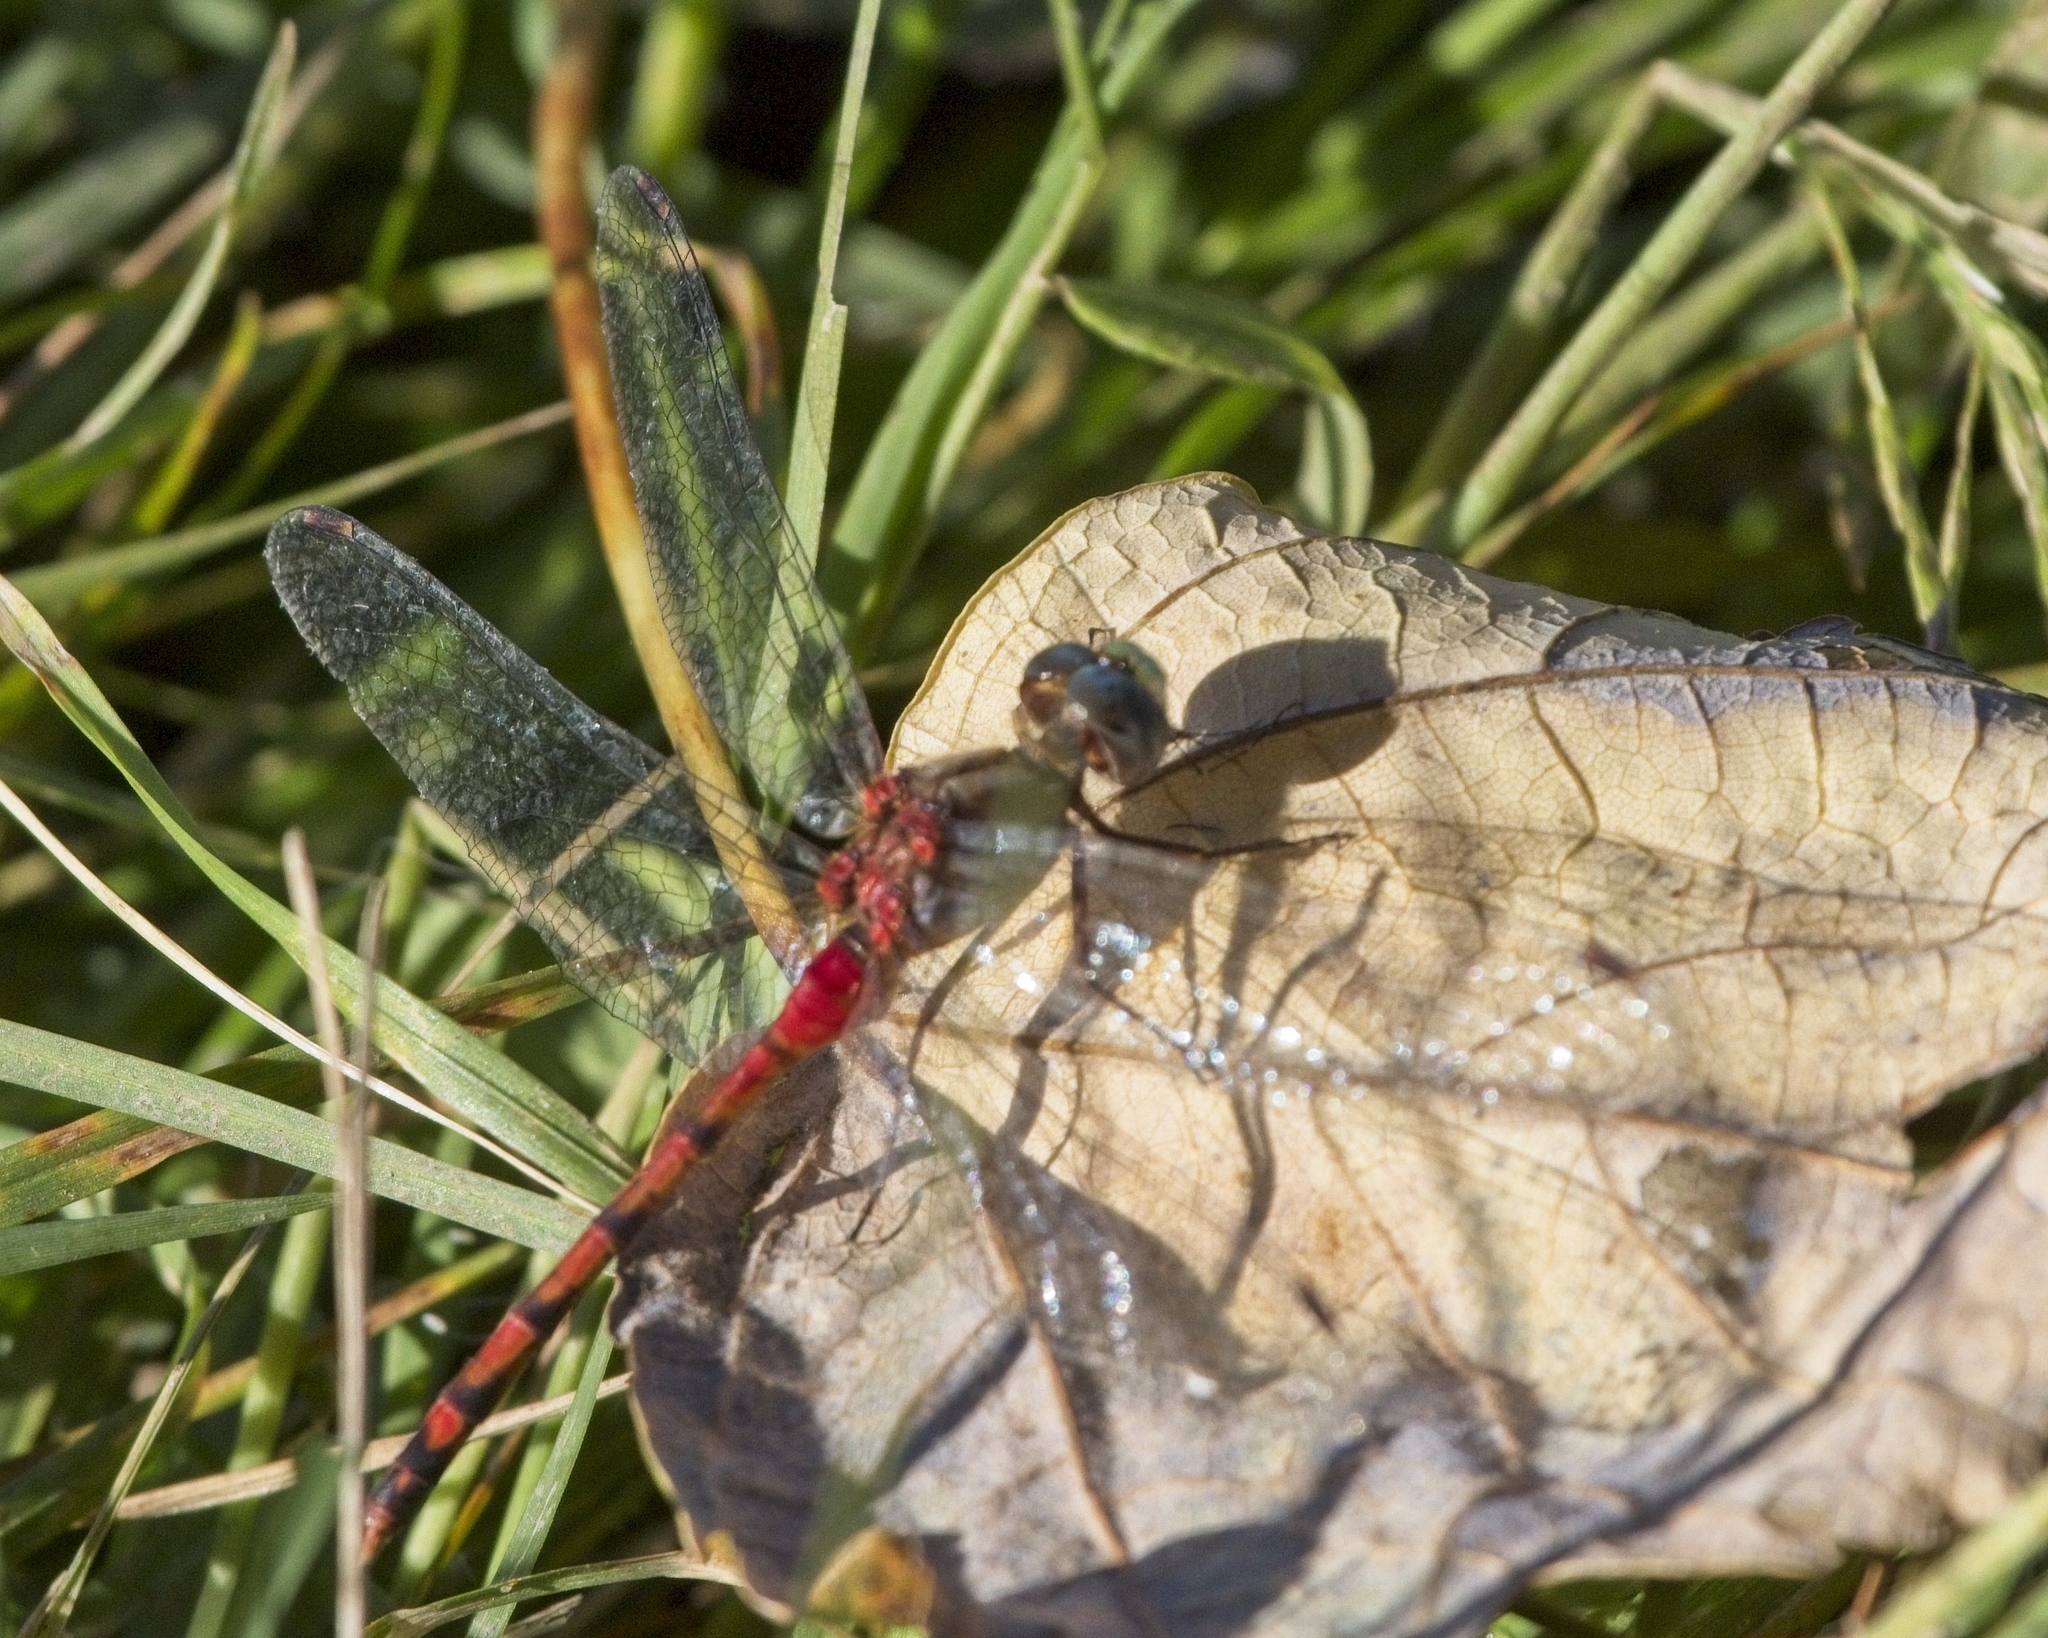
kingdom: Animalia
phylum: Arthropoda
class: Insecta
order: Odonata
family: Libellulidae
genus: Sympetrum
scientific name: Sympetrum ambiguum
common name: Blue-faced meadowhawk
